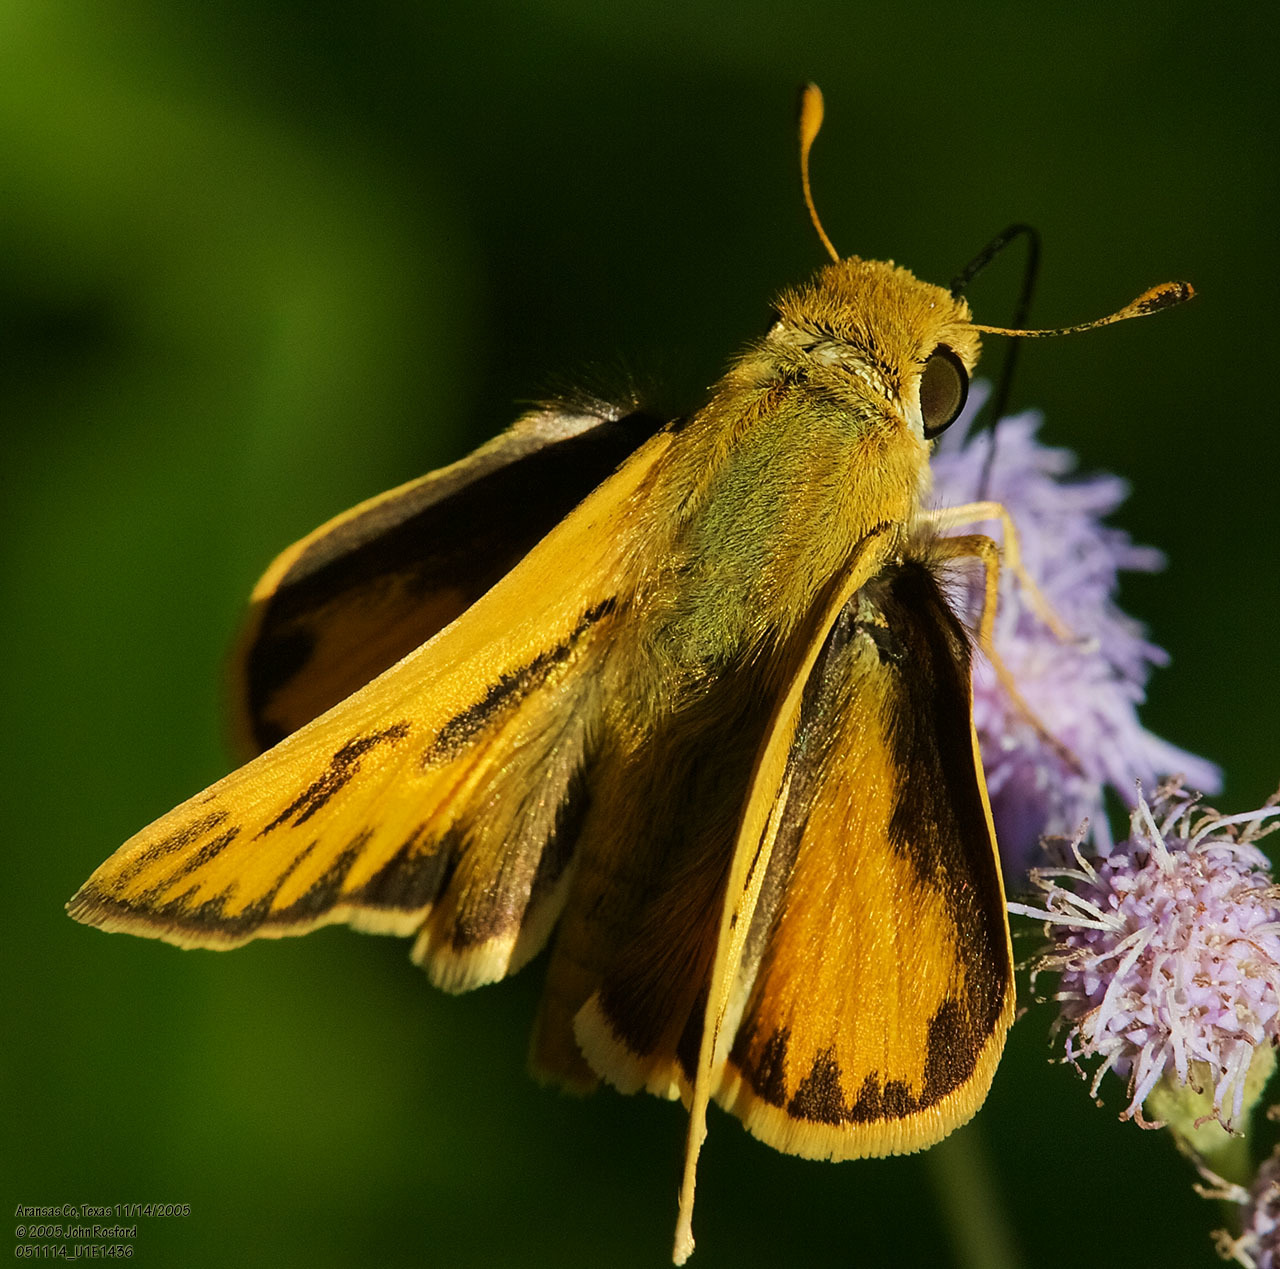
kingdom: Animalia
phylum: Arthropoda
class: Insecta
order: Lepidoptera
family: Hesperiidae
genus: Hylephila
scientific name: Hylephila phyleus
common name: Fiery skipper
